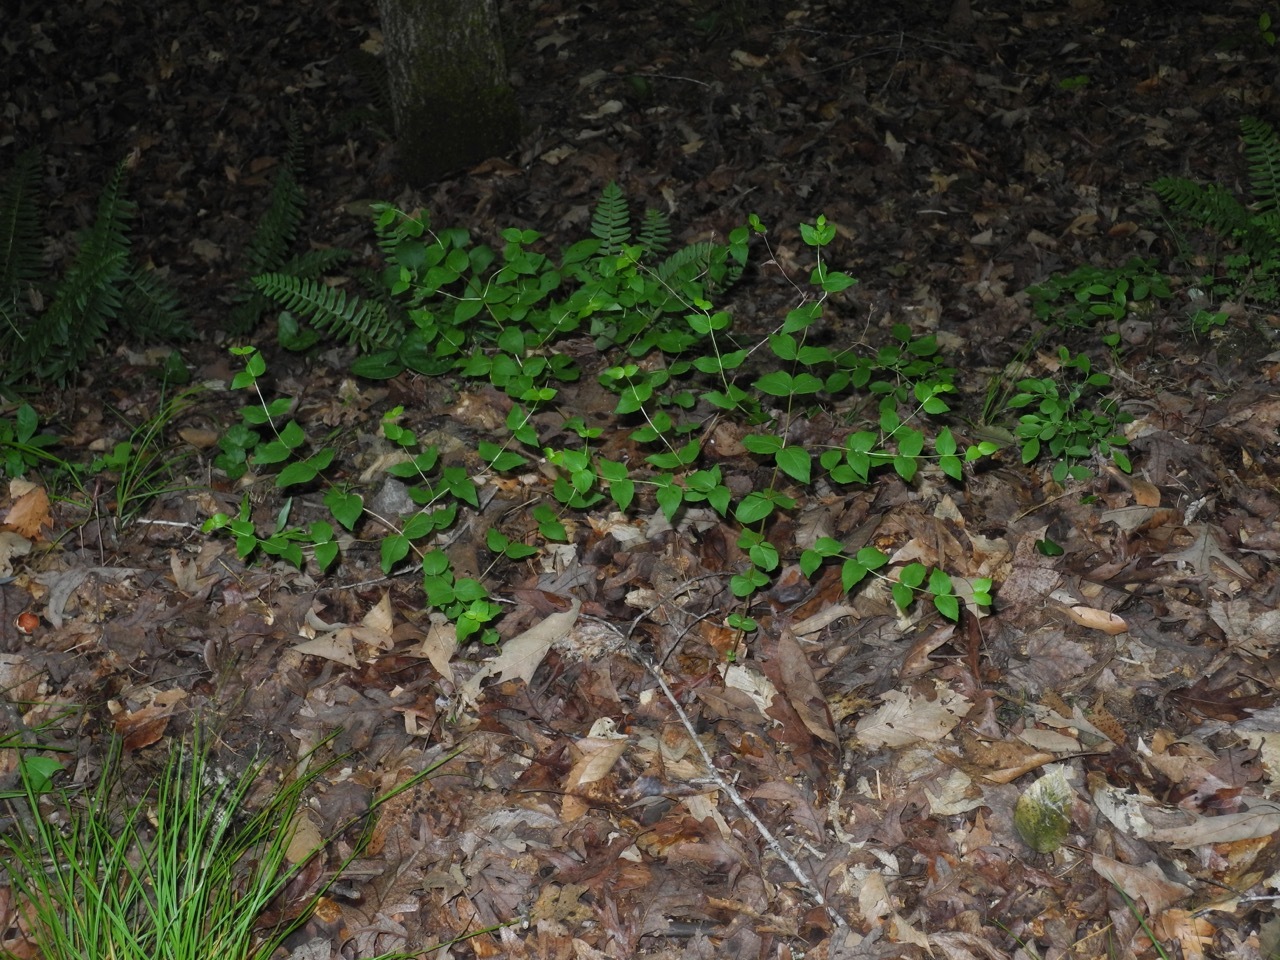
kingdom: Plantae
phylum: Tracheophyta
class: Magnoliopsida
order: Lamiales
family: Lamiaceae
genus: Cunila
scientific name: Cunila origanoides
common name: American dittany
